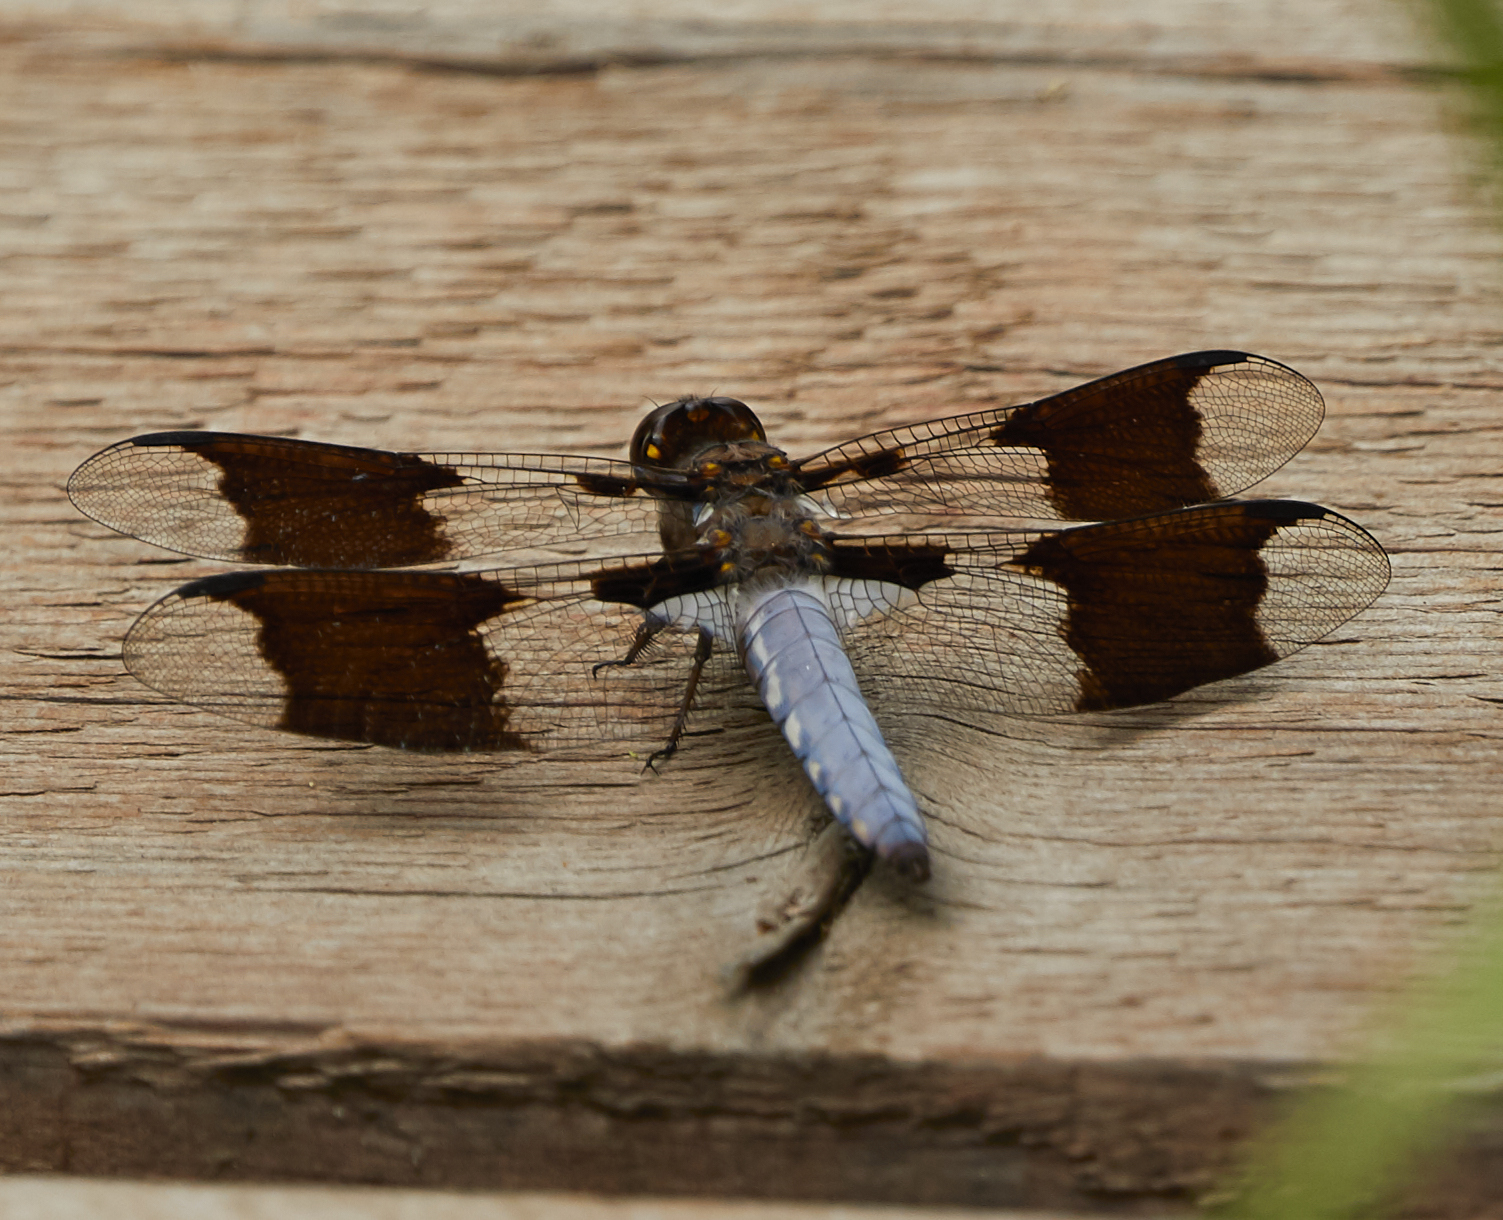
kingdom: Animalia
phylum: Arthropoda
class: Insecta
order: Odonata
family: Libellulidae
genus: Plathemis
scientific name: Plathemis lydia
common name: Common whitetail
